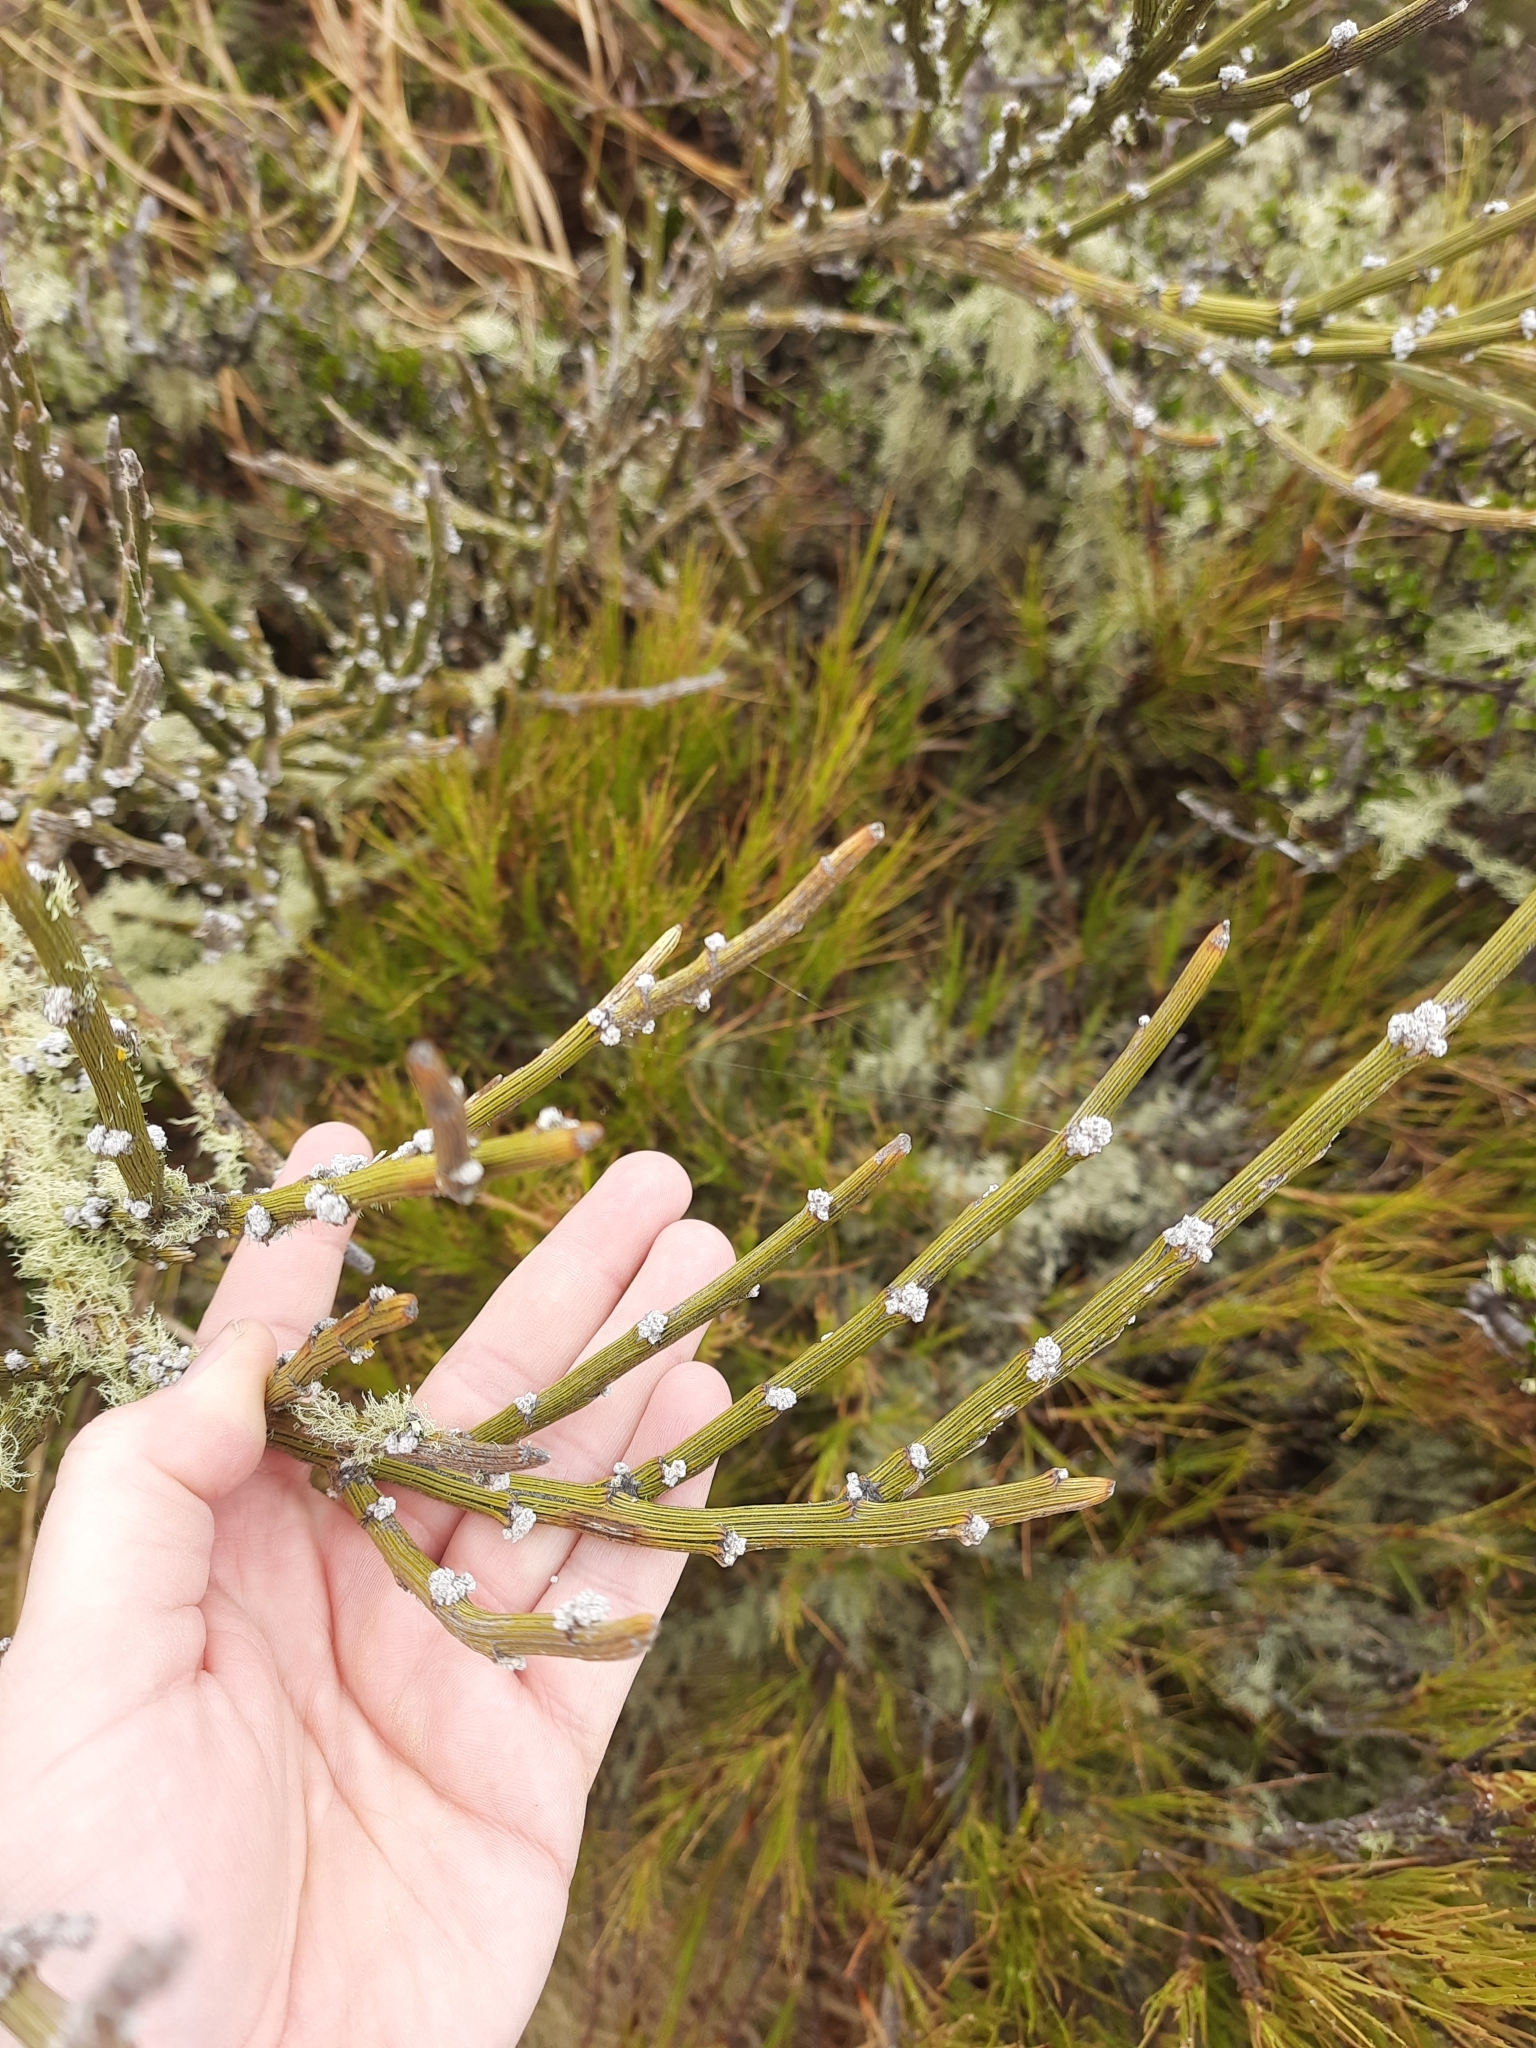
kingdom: Plantae
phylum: Tracheophyta
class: Magnoliopsida
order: Fabales
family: Fabaceae
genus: Carmichaelia
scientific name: Carmichaelia crassicaulis
